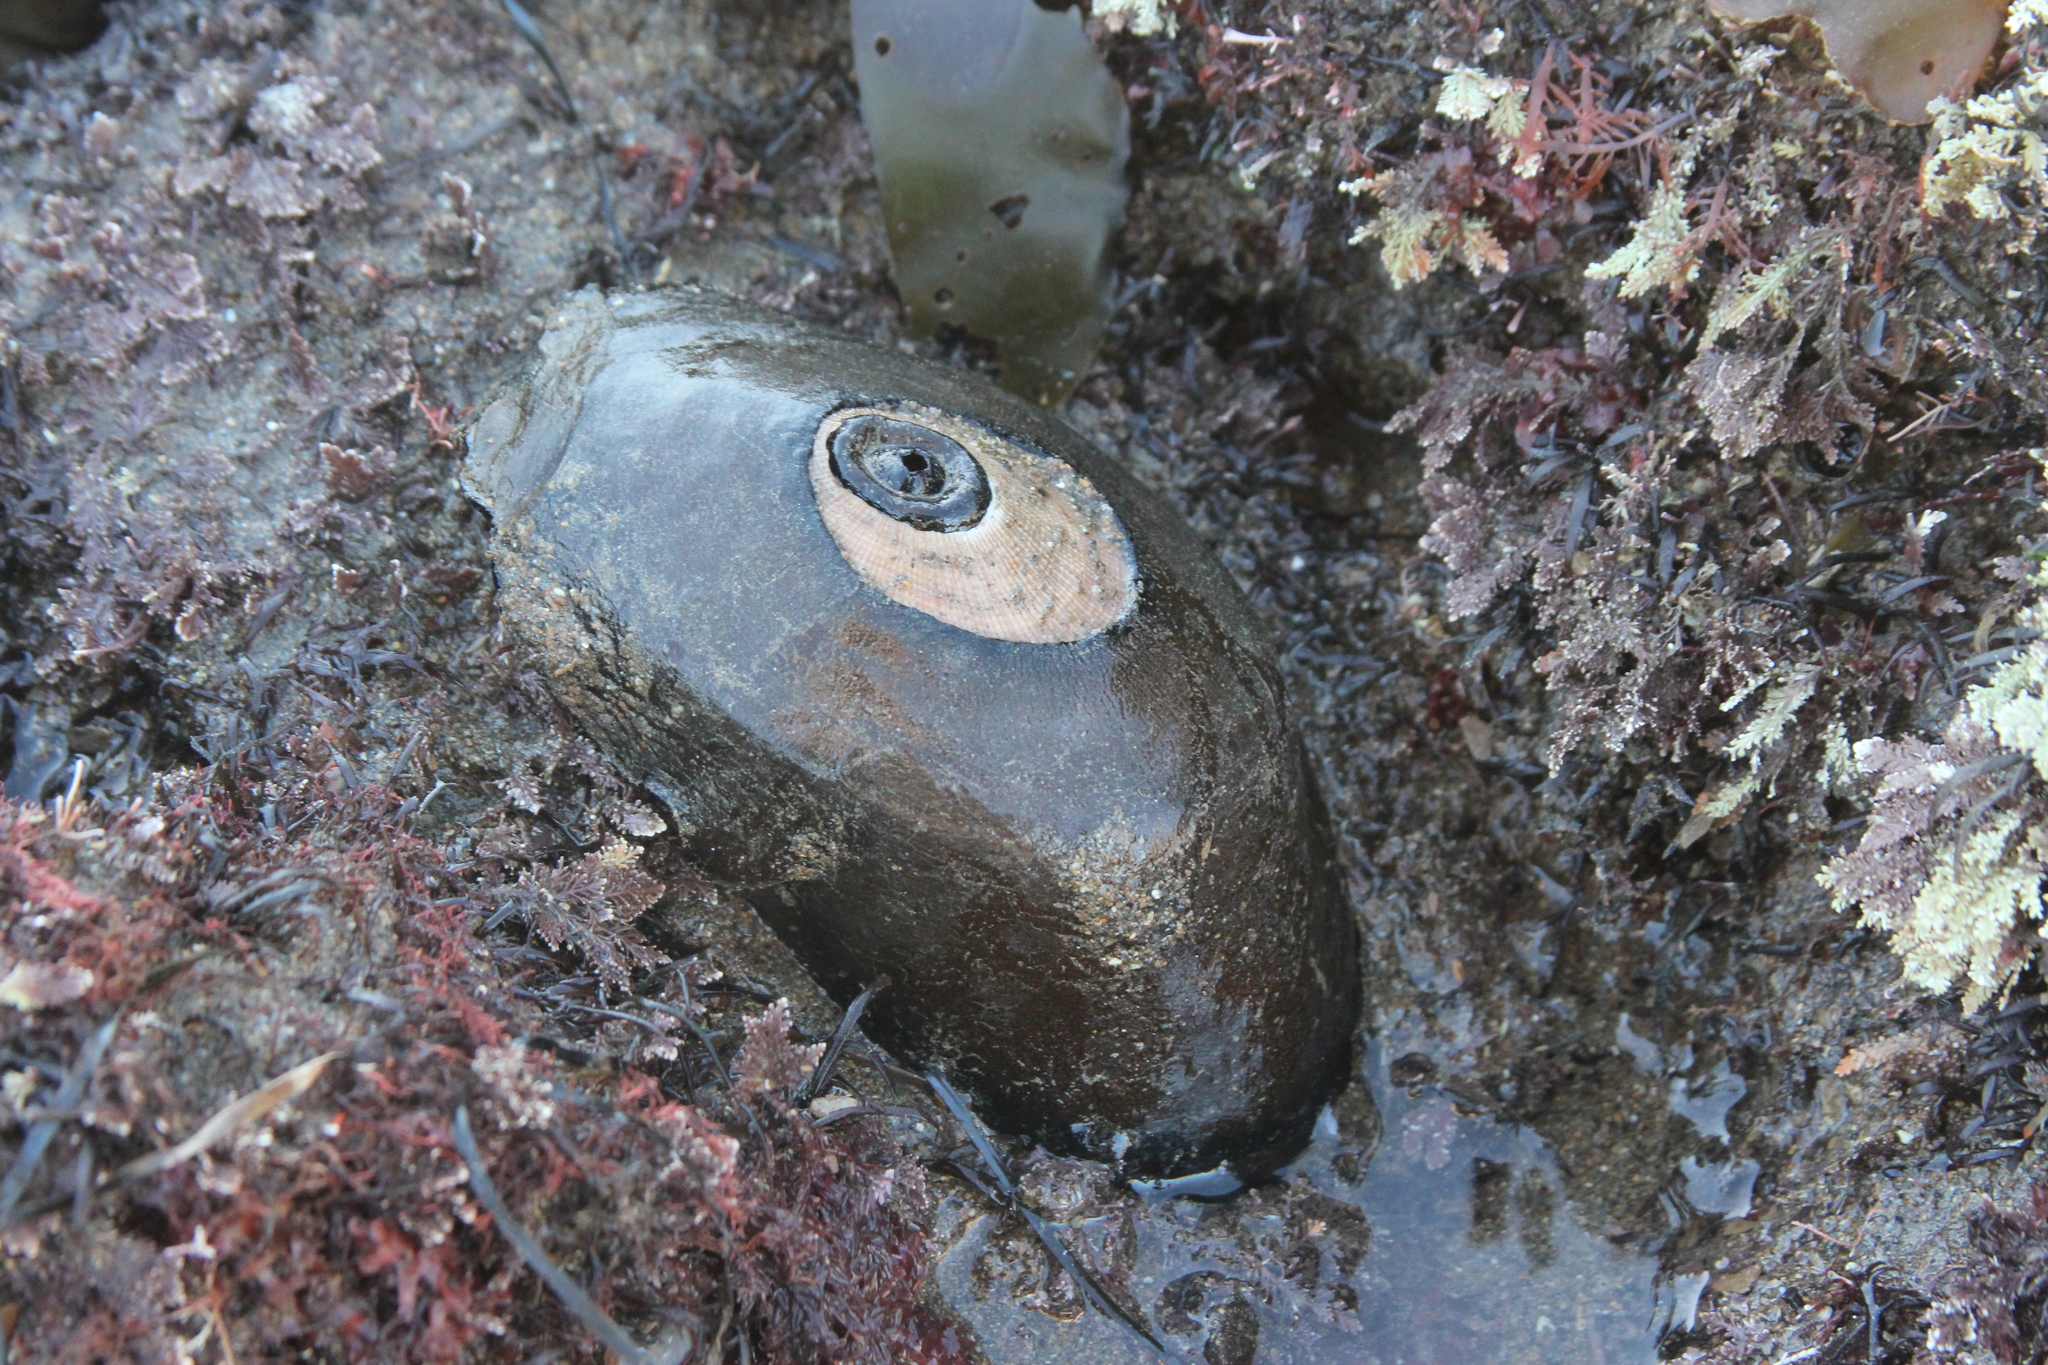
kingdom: Animalia
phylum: Mollusca
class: Gastropoda
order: Lepetellida
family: Fissurellidae
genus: Megathura
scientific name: Megathura crenulata
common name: Giant keyhole limpet
